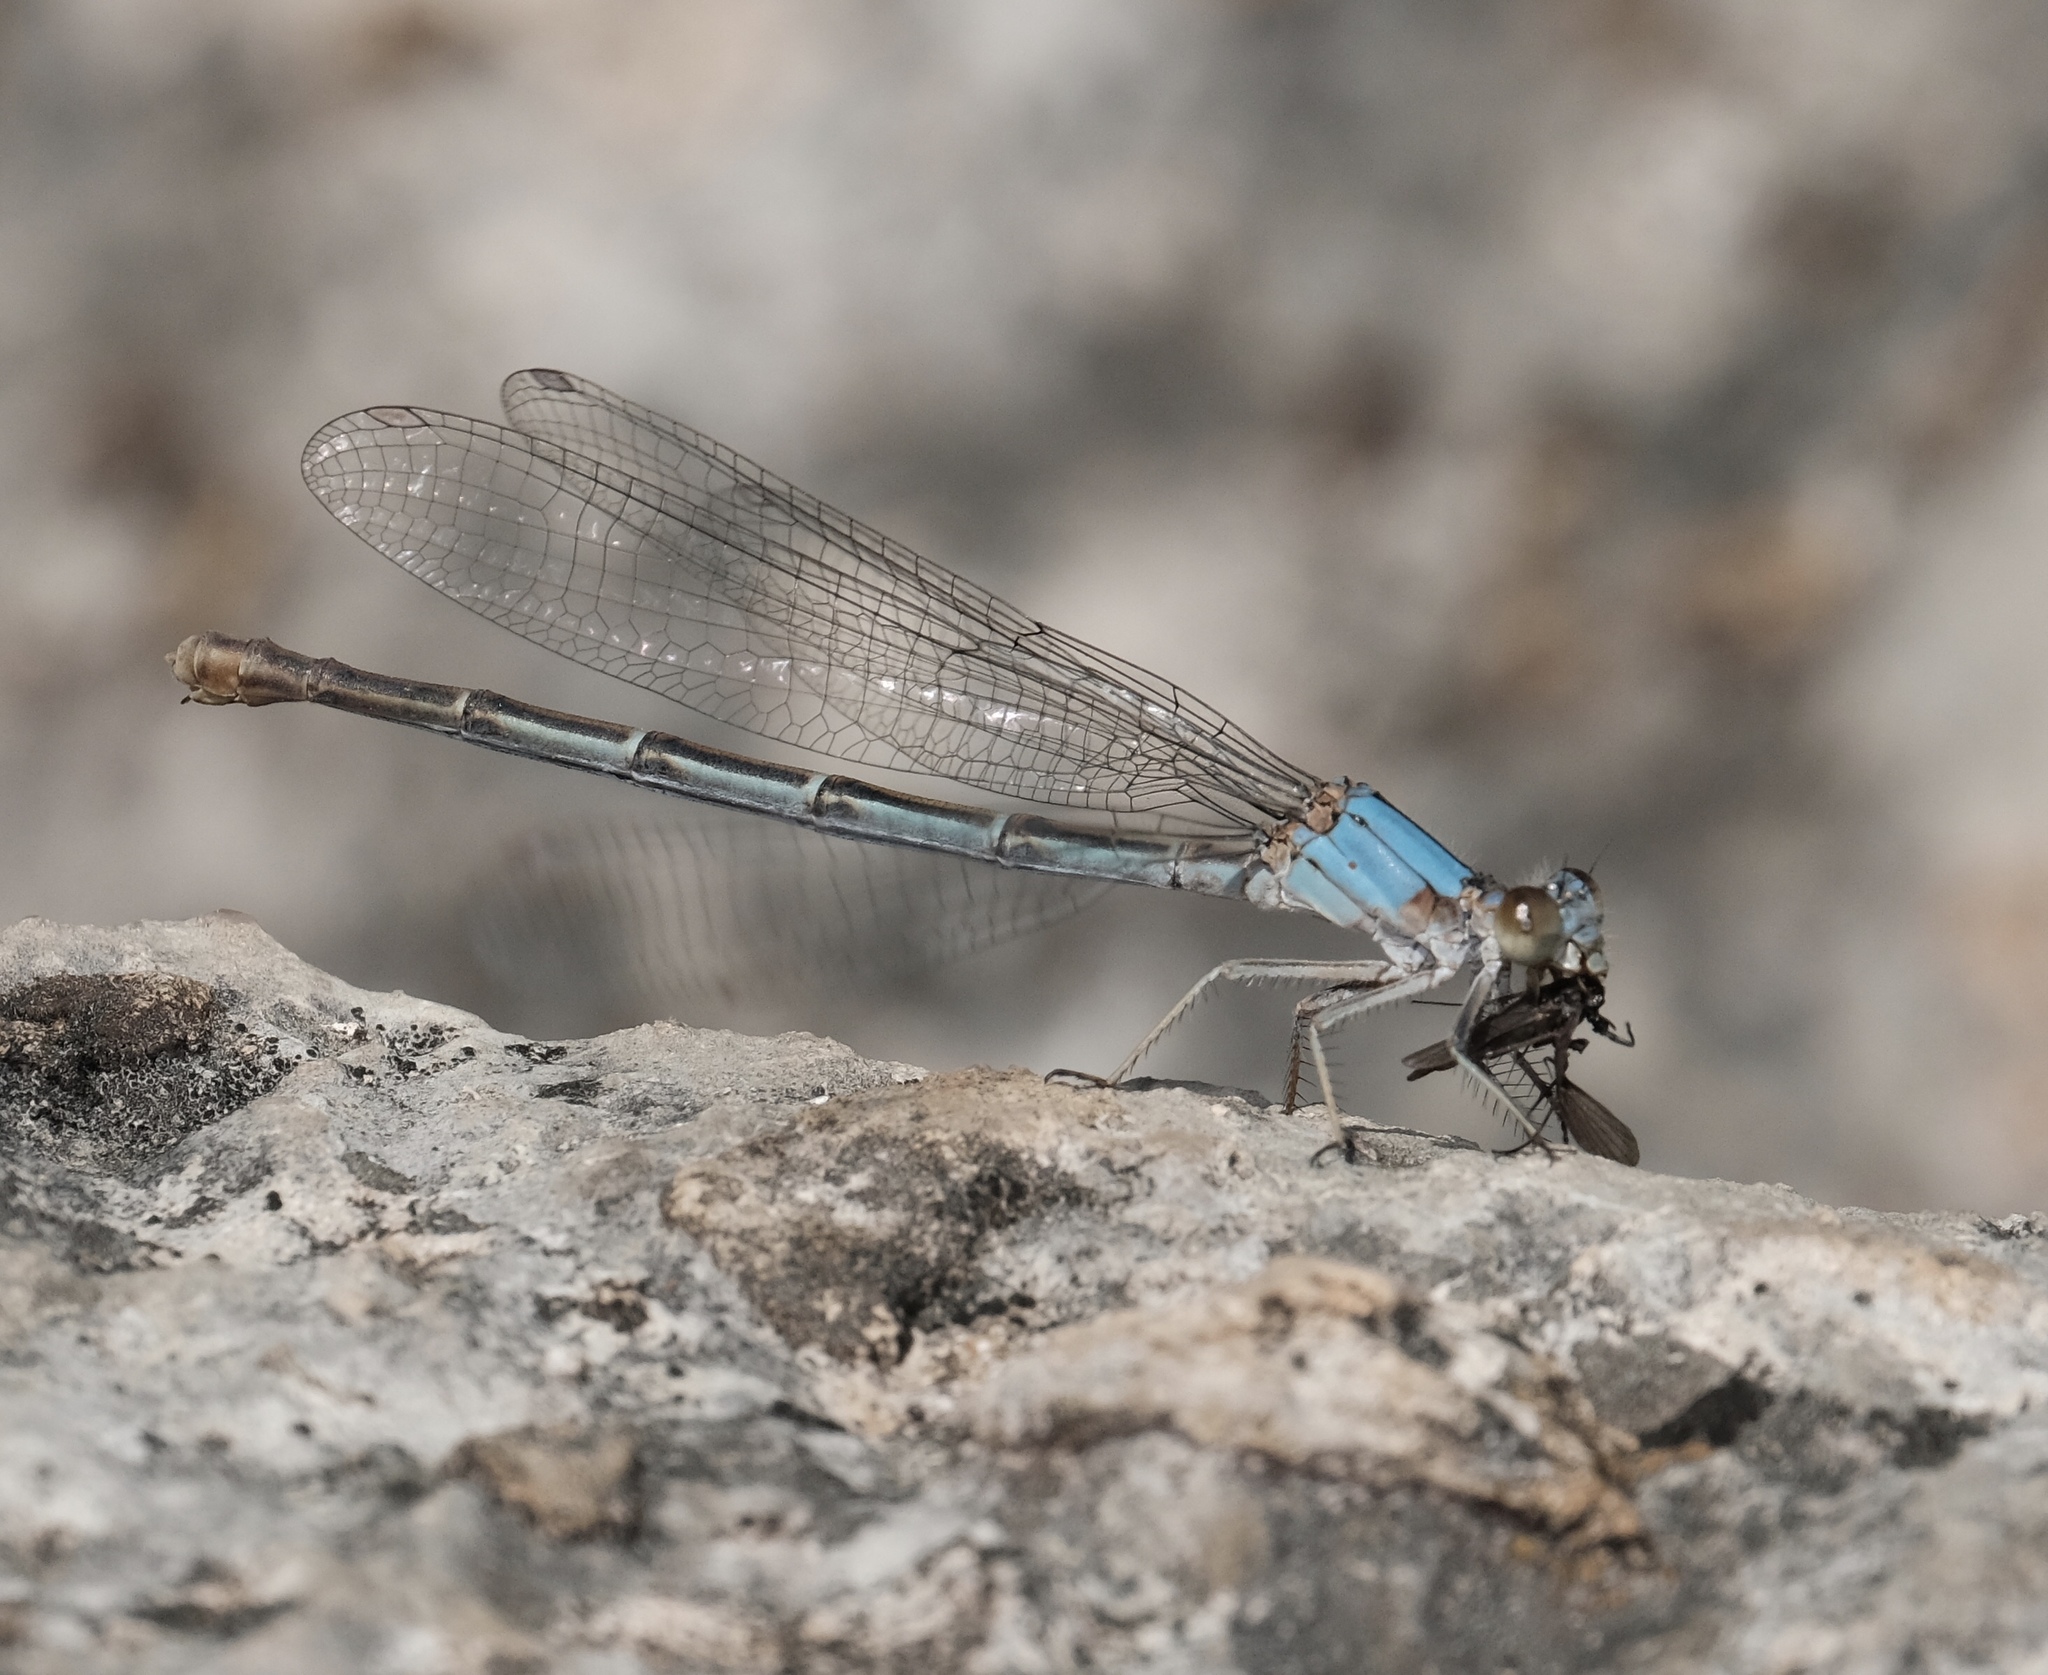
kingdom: Animalia
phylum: Arthropoda
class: Insecta
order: Odonata
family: Coenagrionidae
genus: Argia
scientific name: Argia moesta
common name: Powdered dancer
